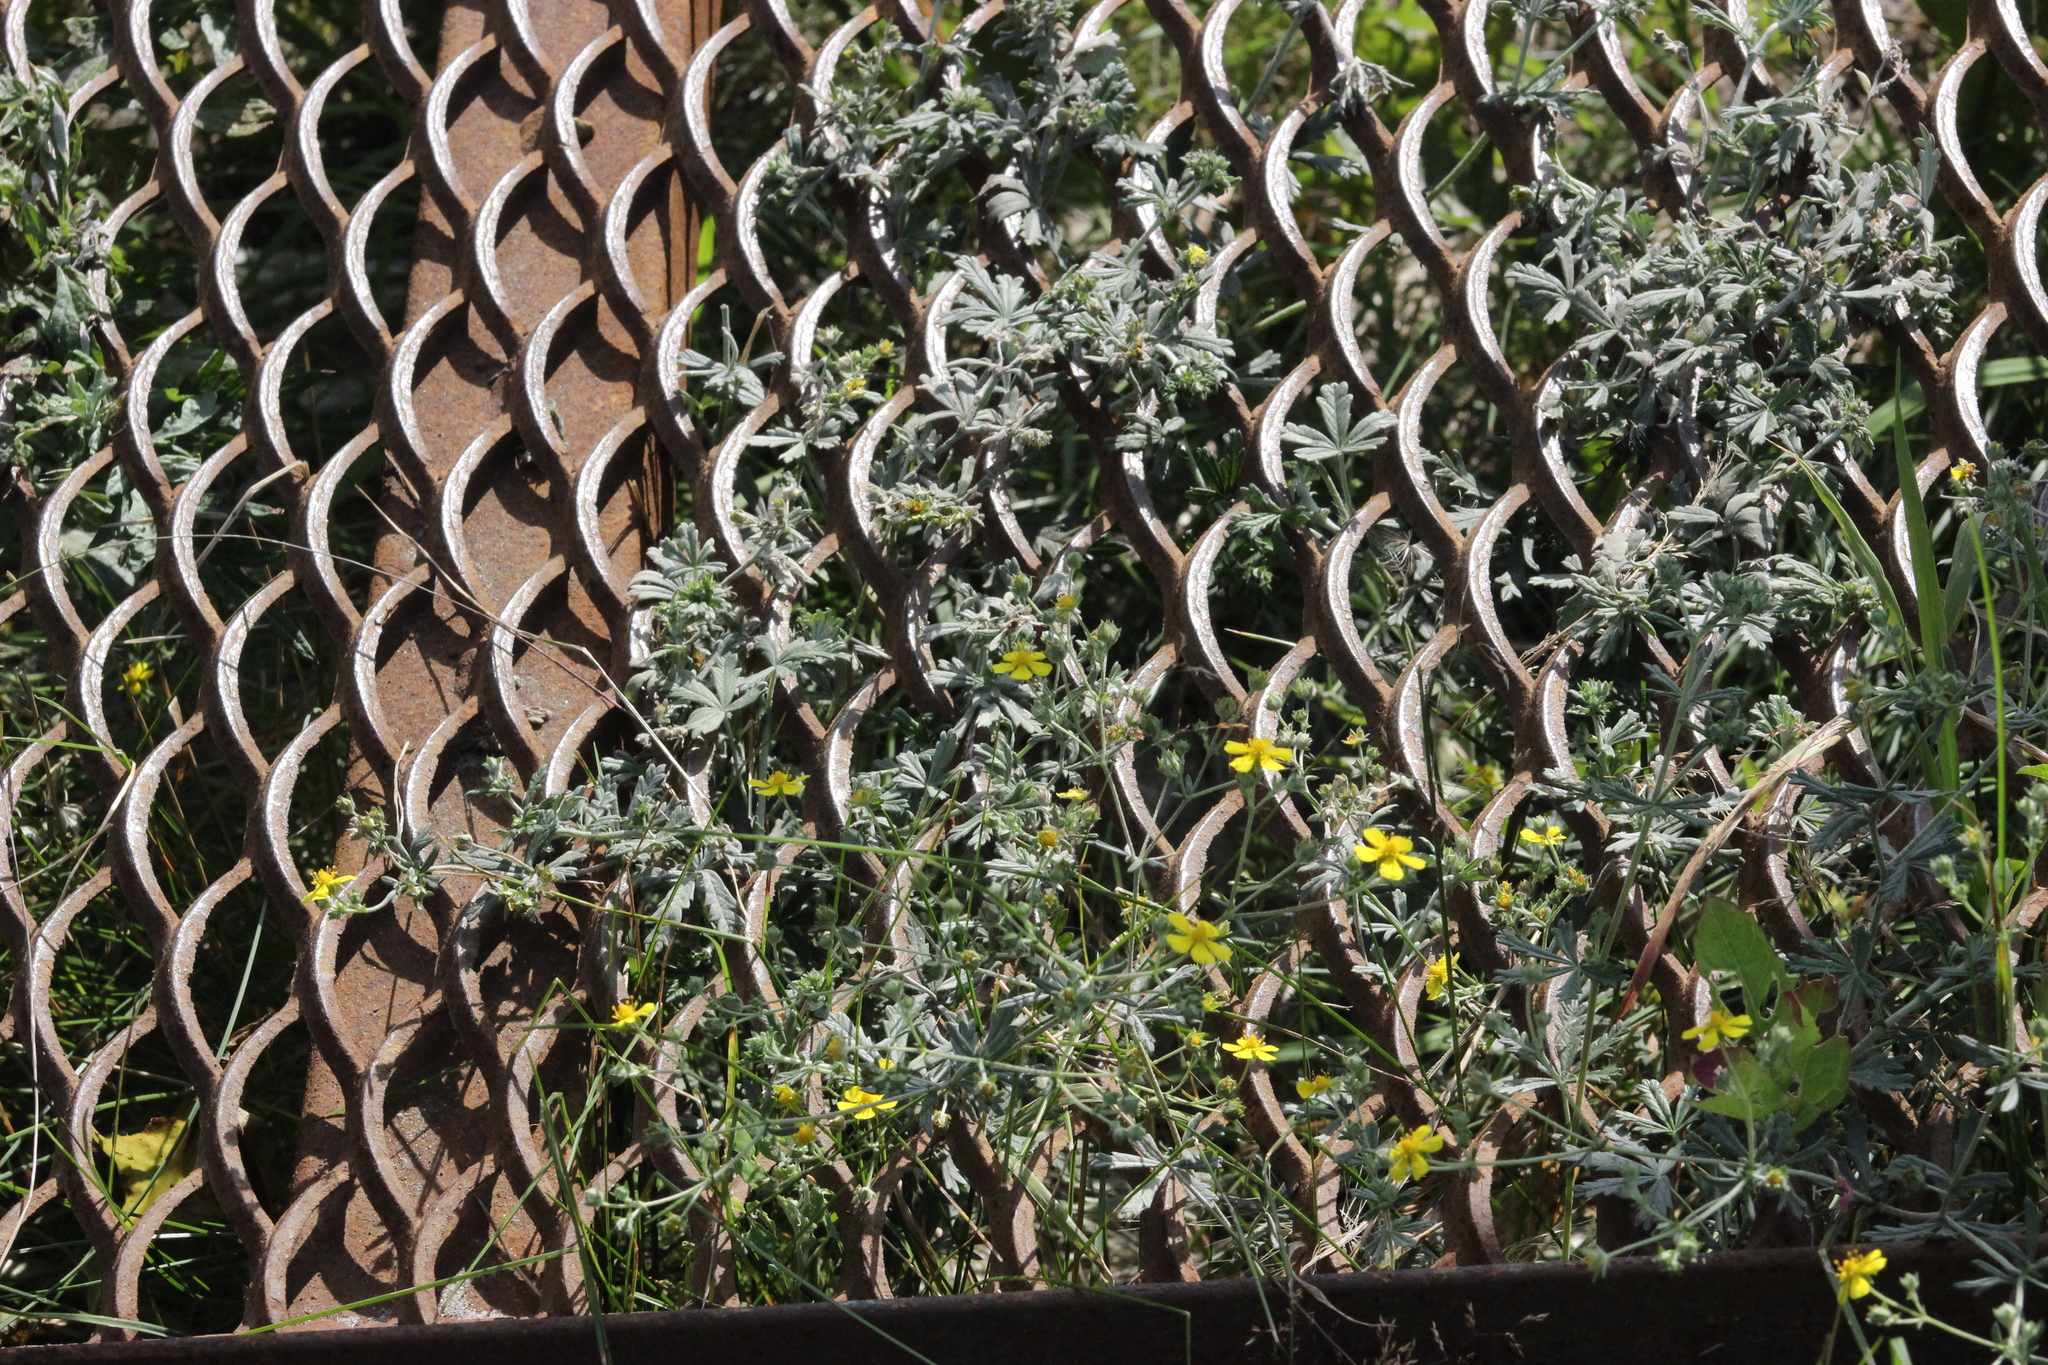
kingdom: Plantae
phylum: Tracheophyta
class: Magnoliopsida
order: Rosales
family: Rosaceae
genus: Potentilla
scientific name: Potentilla argentea
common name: Hoary cinquefoil
